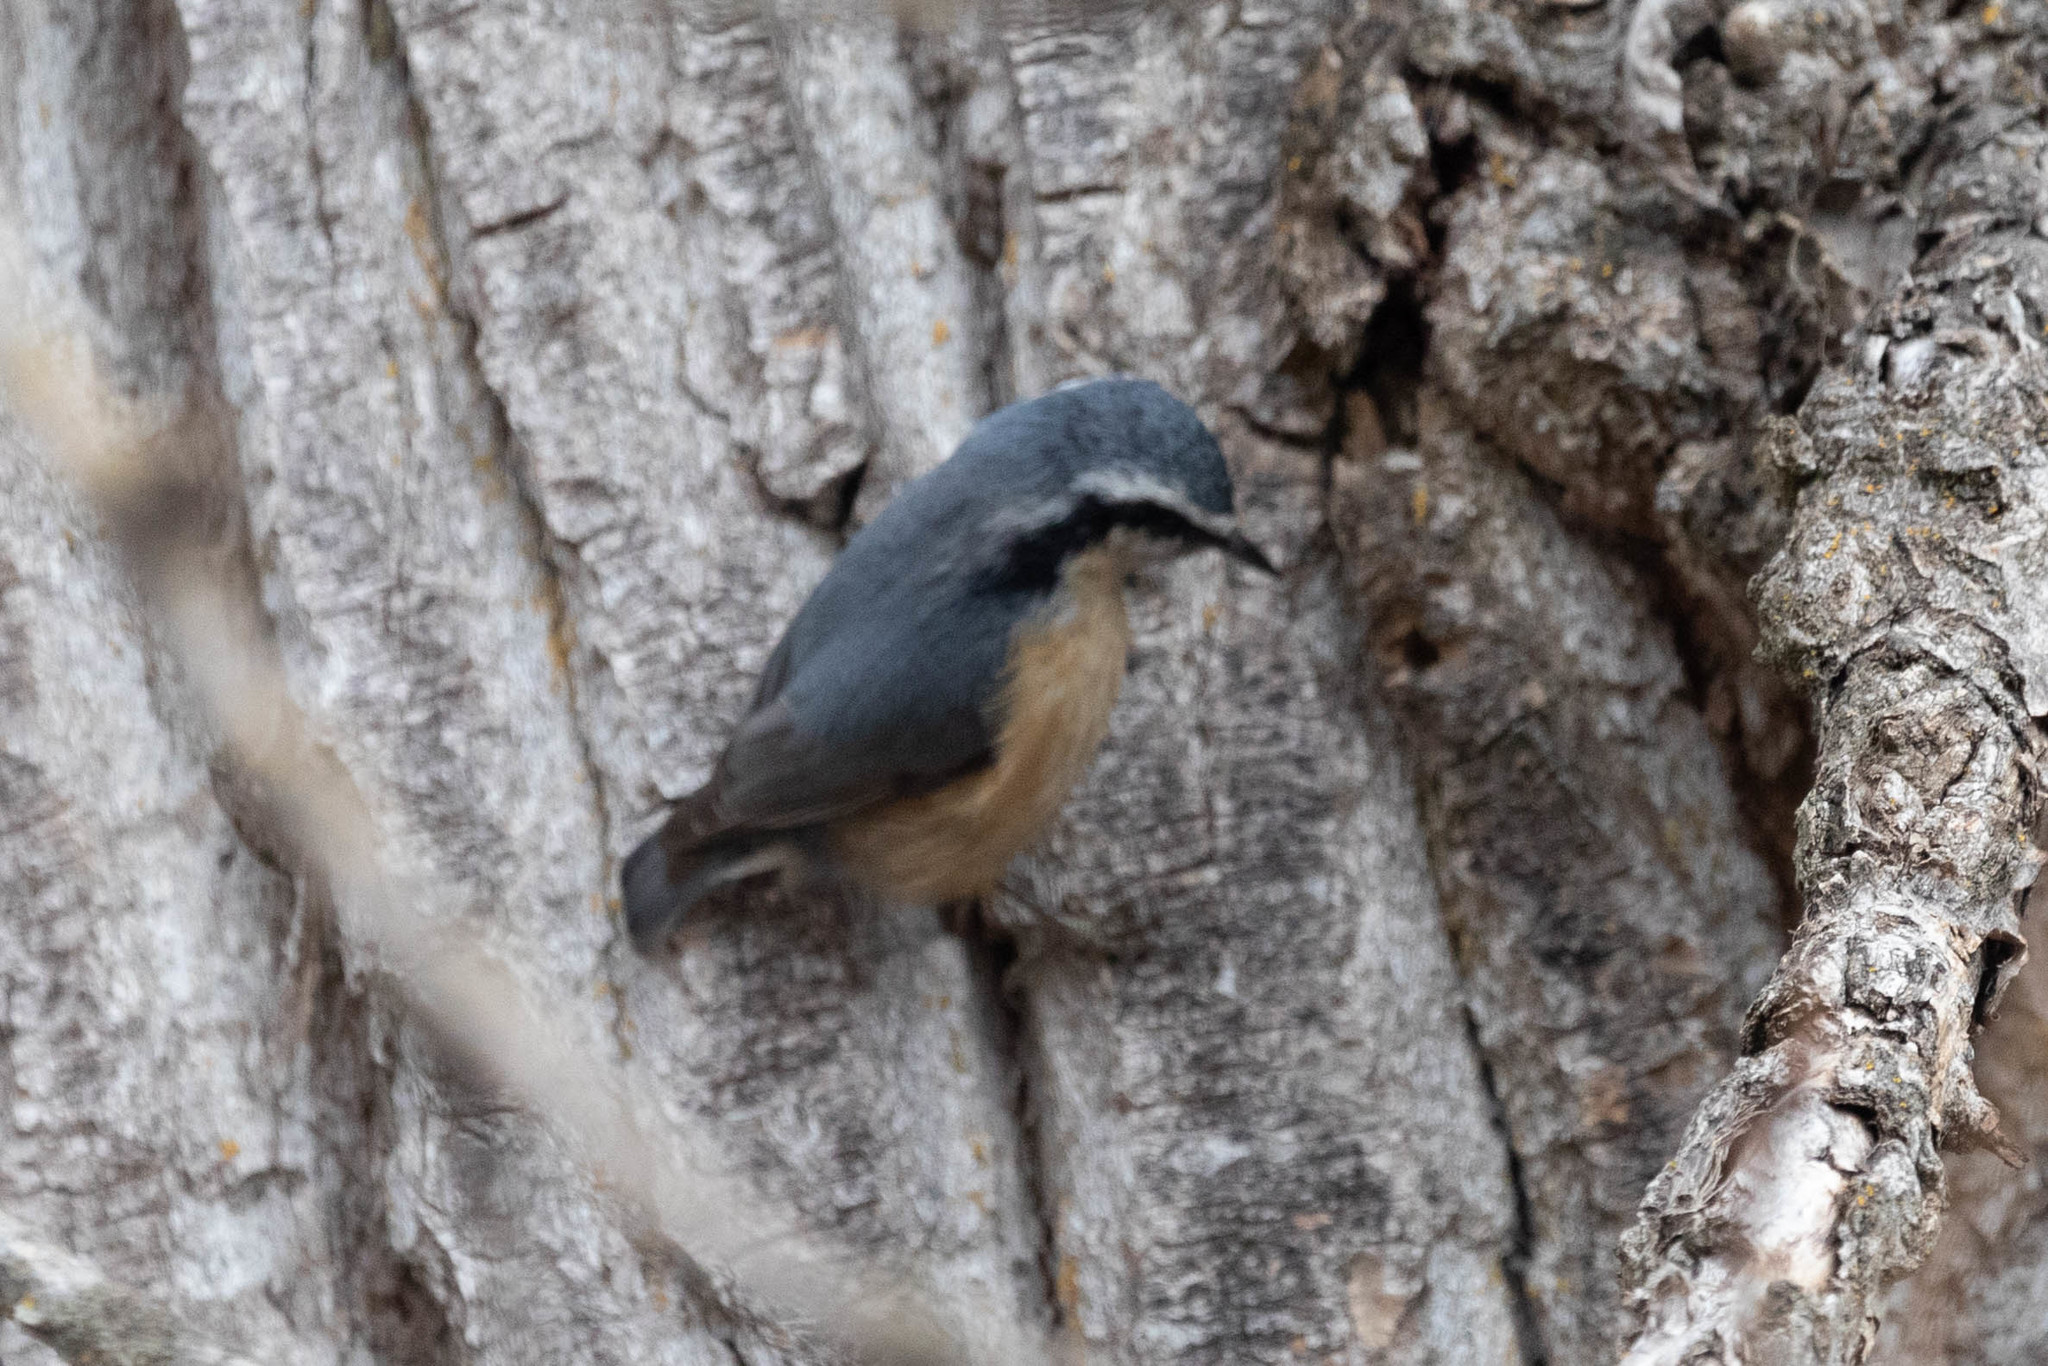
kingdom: Animalia
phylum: Chordata
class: Aves
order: Passeriformes
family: Sittidae
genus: Sitta
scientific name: Sitta canadensis
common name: Red-breasted nuthatch
